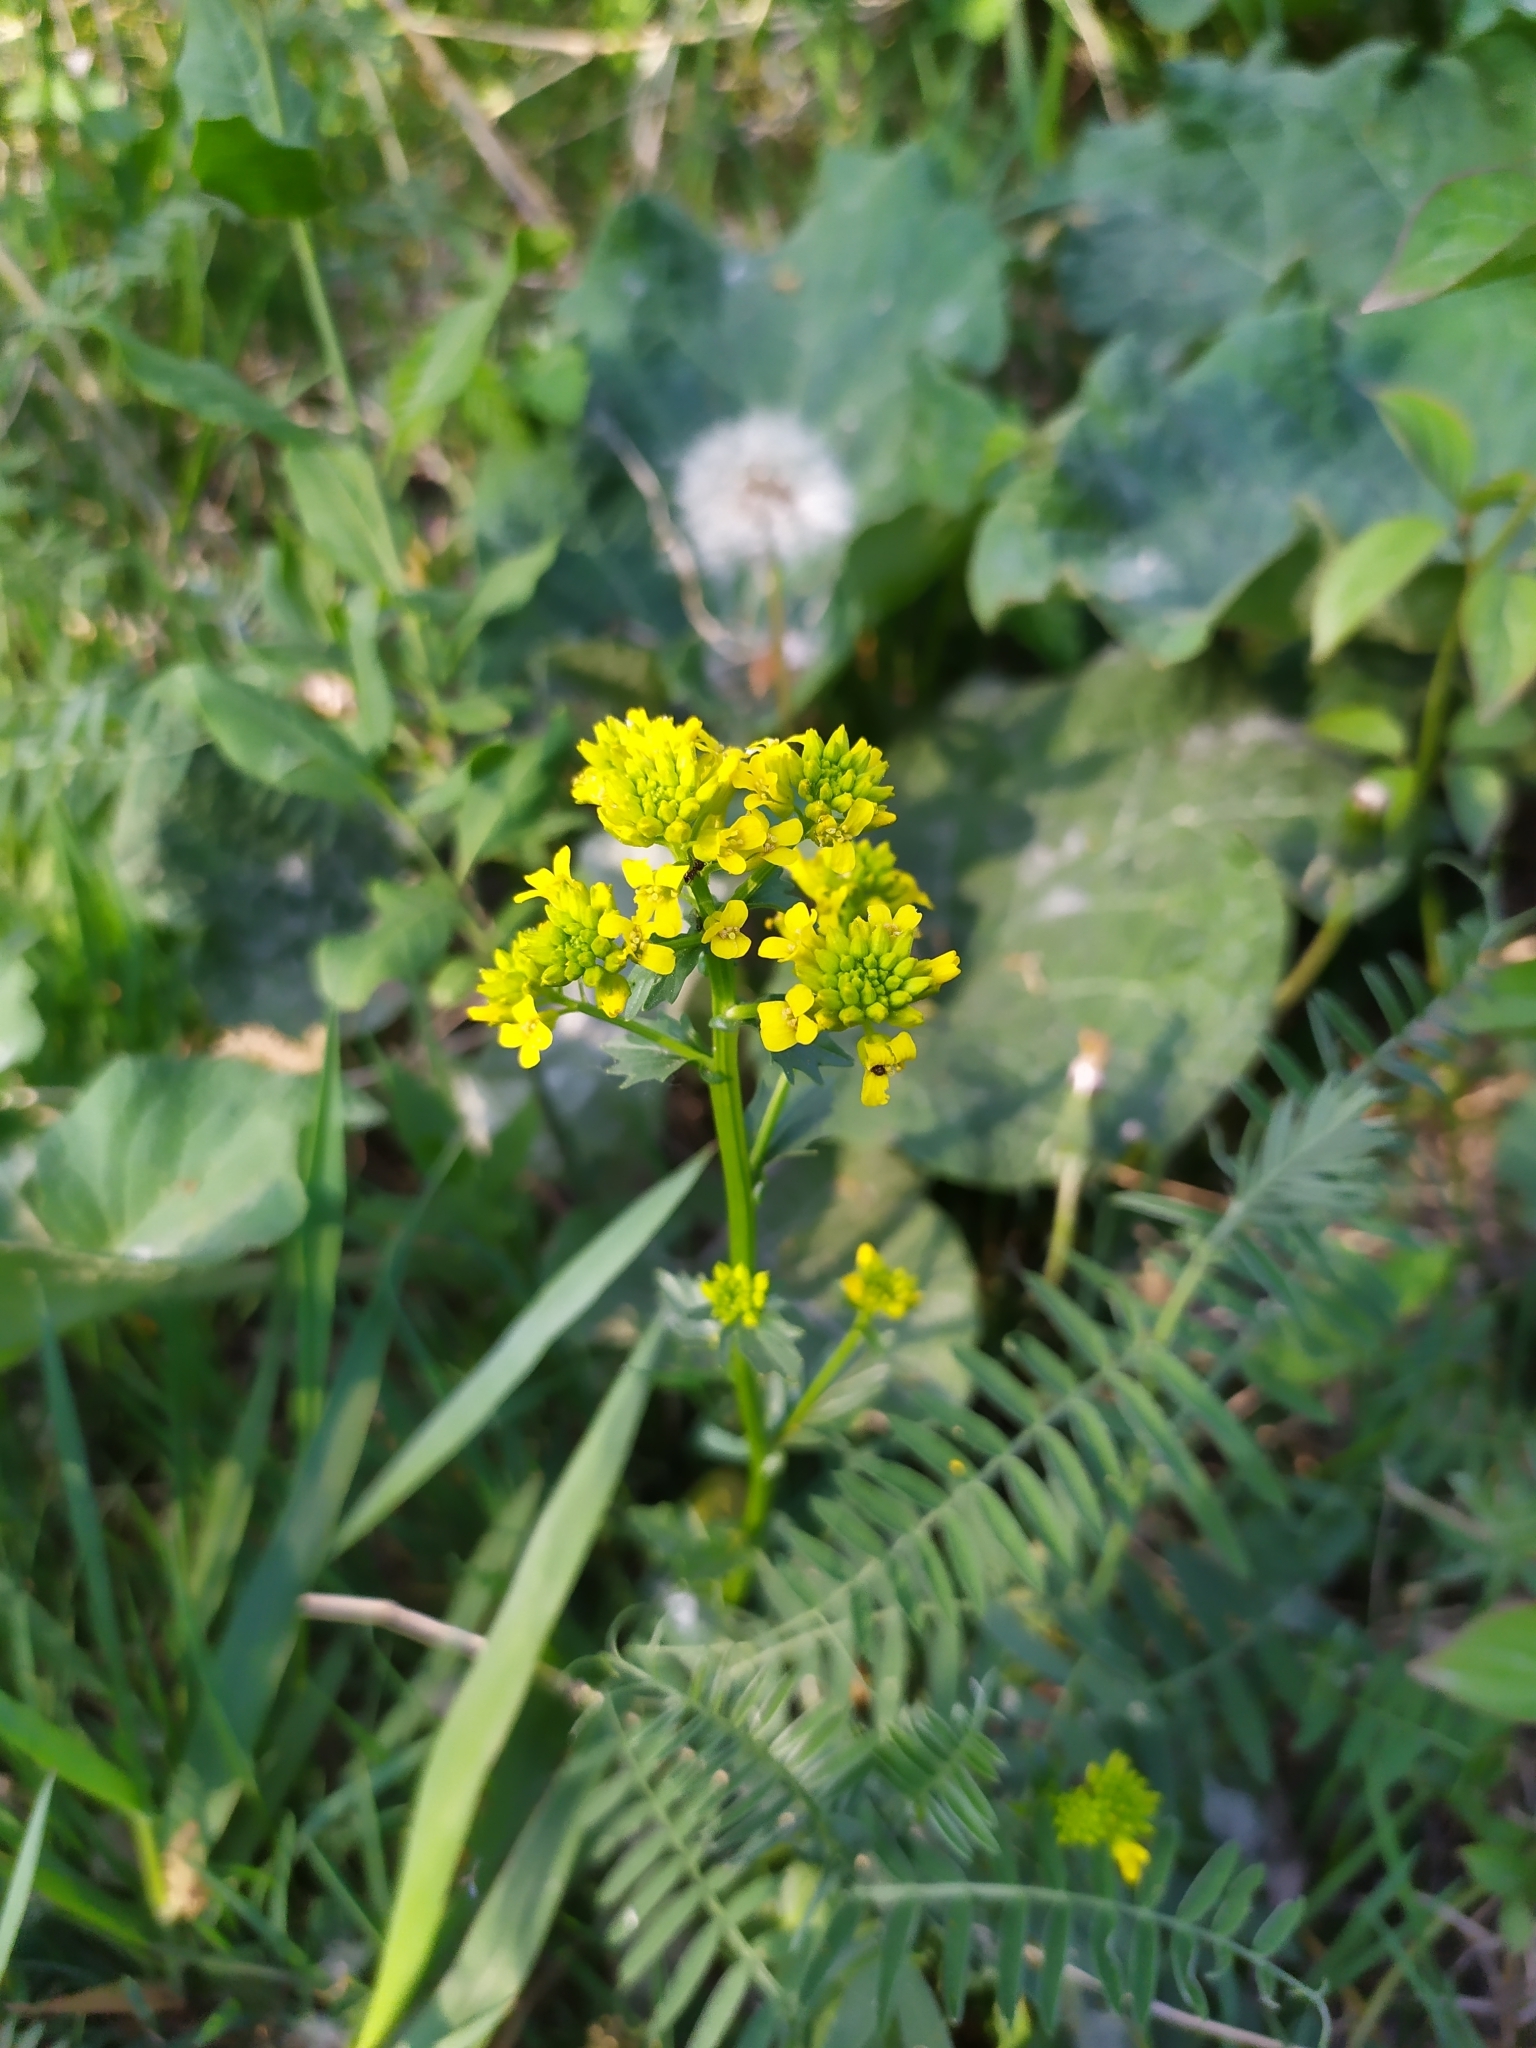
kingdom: Plantae
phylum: Tracheophyta
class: Magnoliopsida
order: Brassicales
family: Brassicaceae
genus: Barbarea
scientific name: Barbarea vulgaris
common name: Cressy-greens
